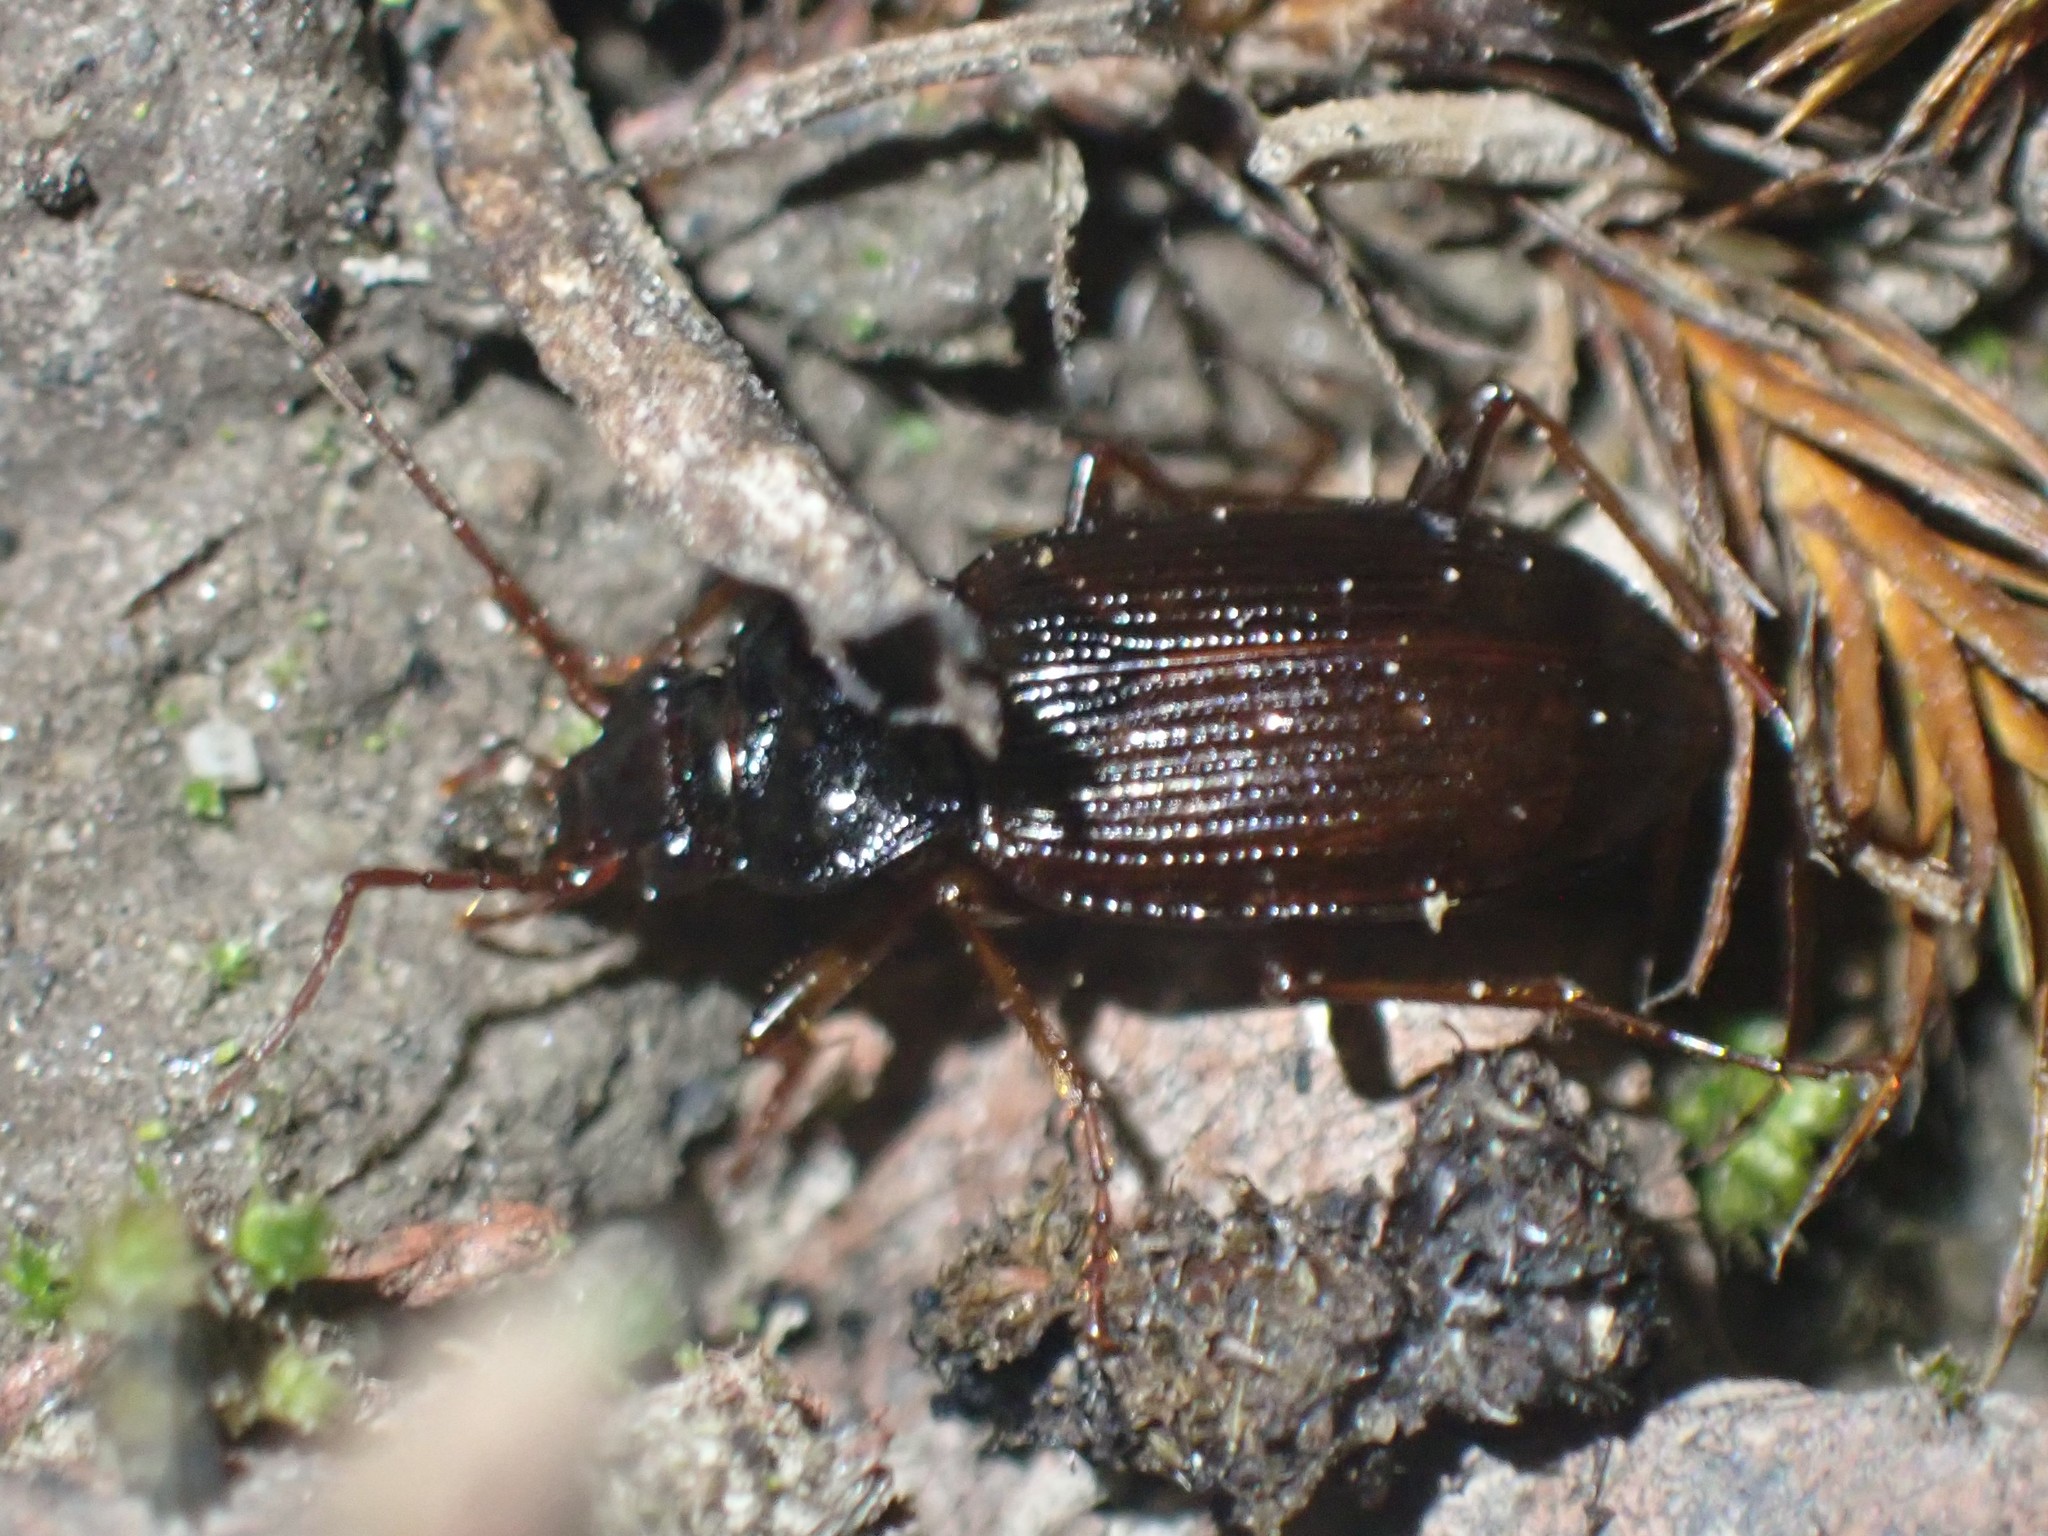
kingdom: Animalia
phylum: Arthropoda
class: Insecta
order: Coleoptera
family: Carabidae
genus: Nebria
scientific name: Nebria brevicollis
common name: Short-necked gazelle beetle
